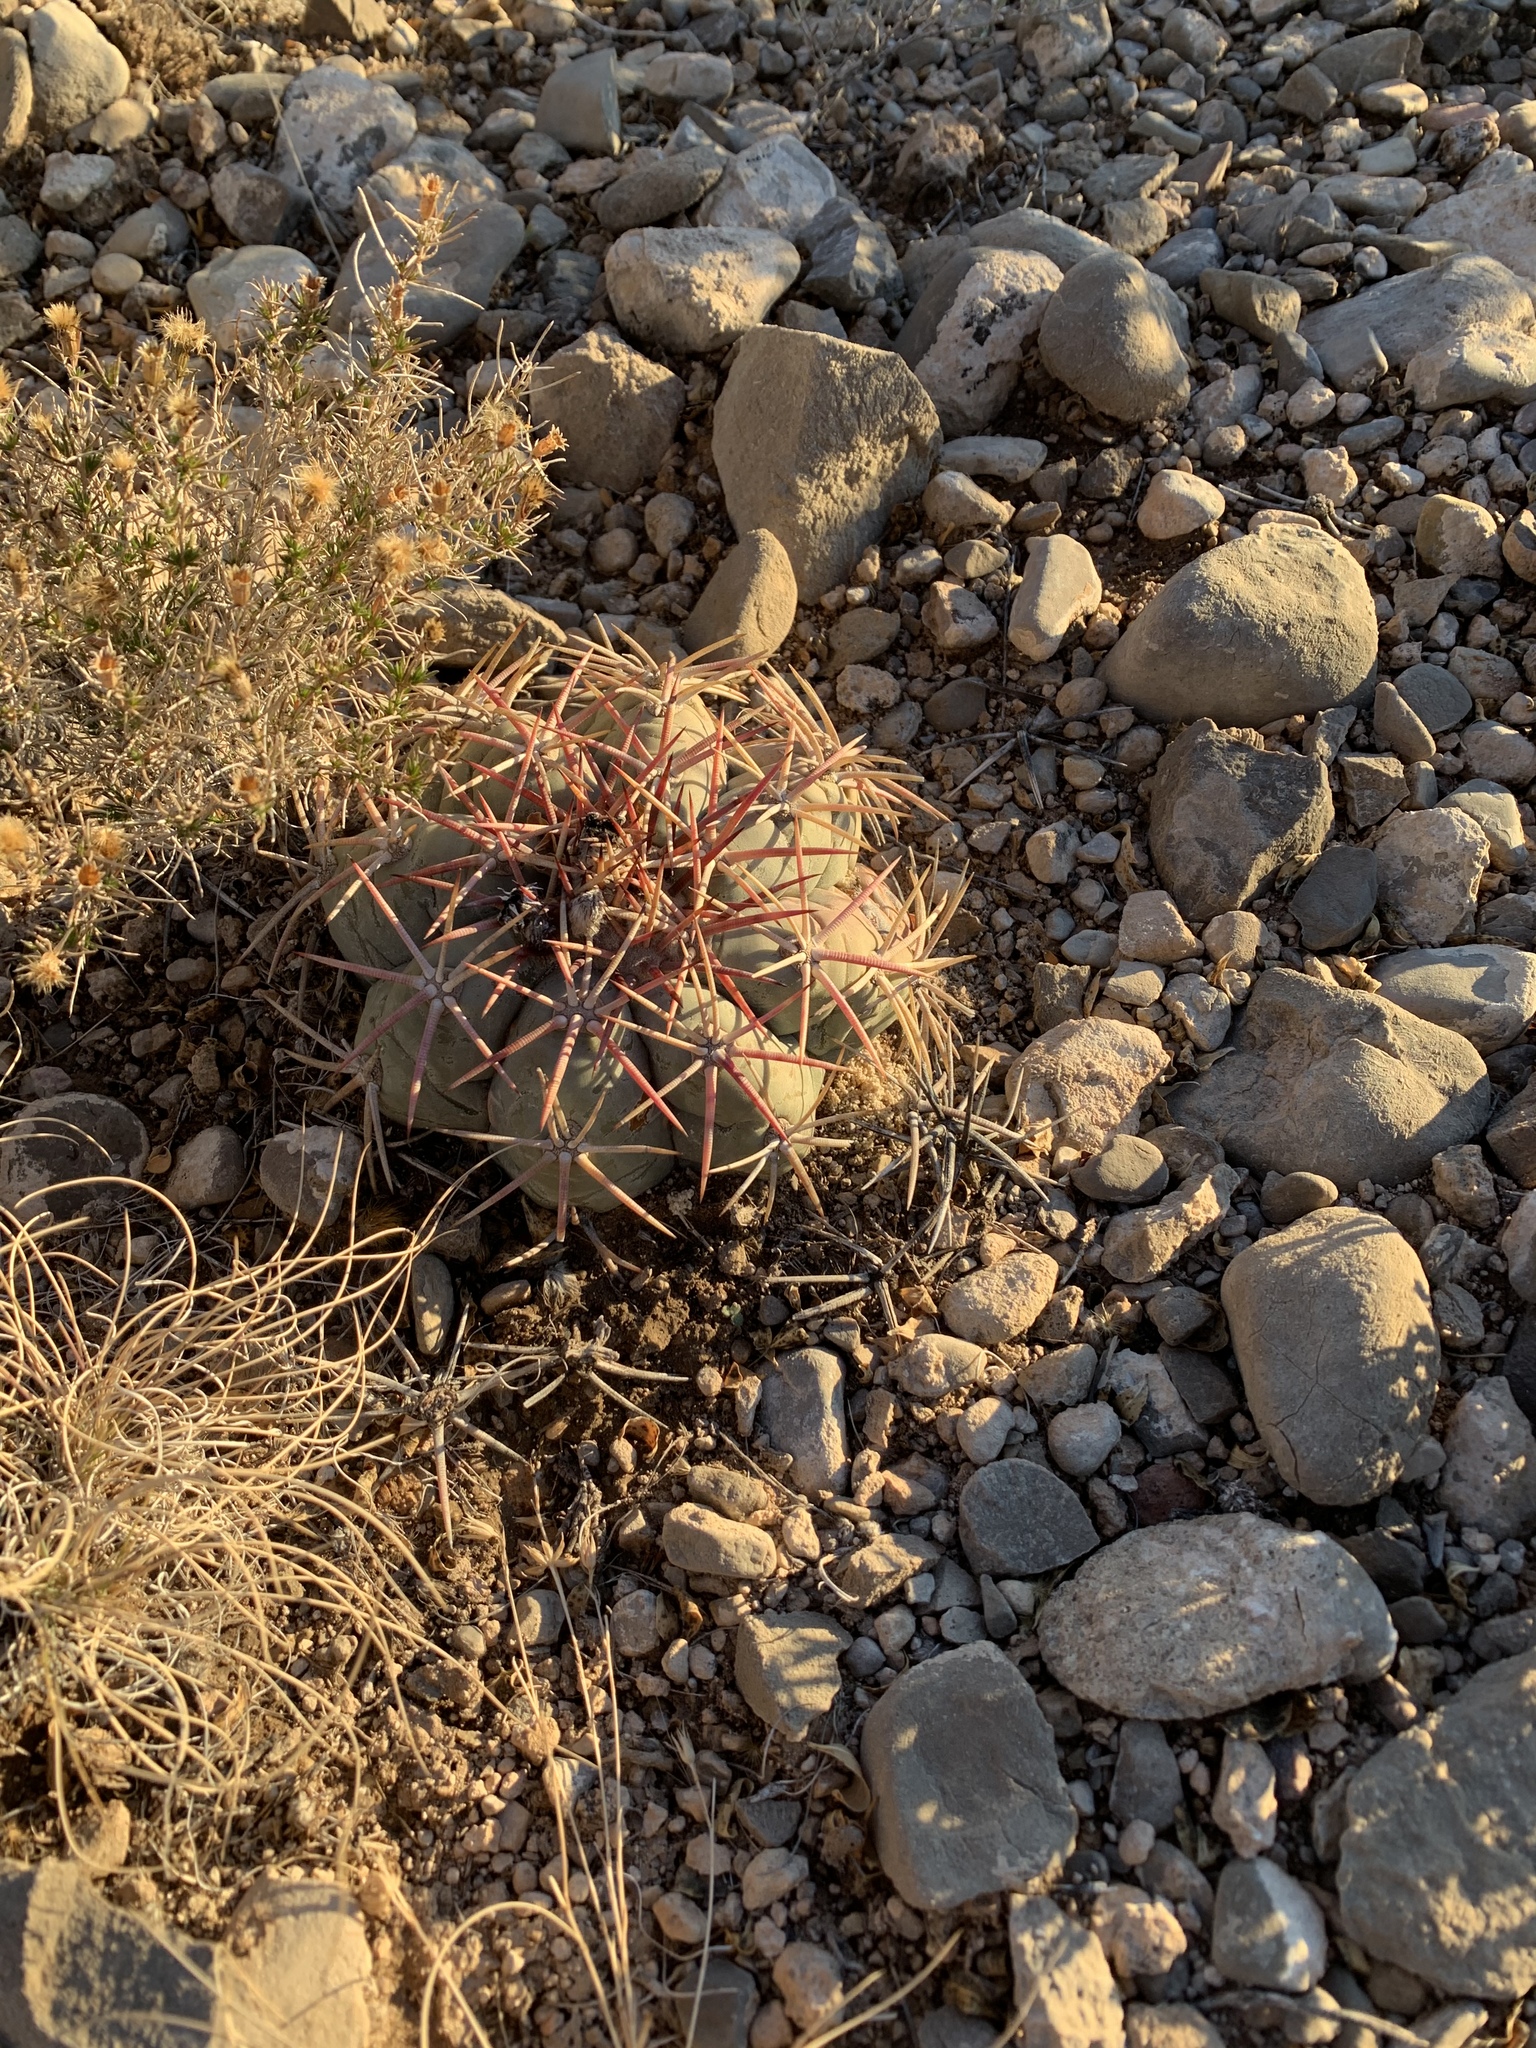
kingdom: Plantae
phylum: Tracheophyta
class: Magnoliopsida
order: Caryophyllales
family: Cactaceae
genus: Echinocactus
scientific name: Echinocactus horizonthalonius
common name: Devilshead
